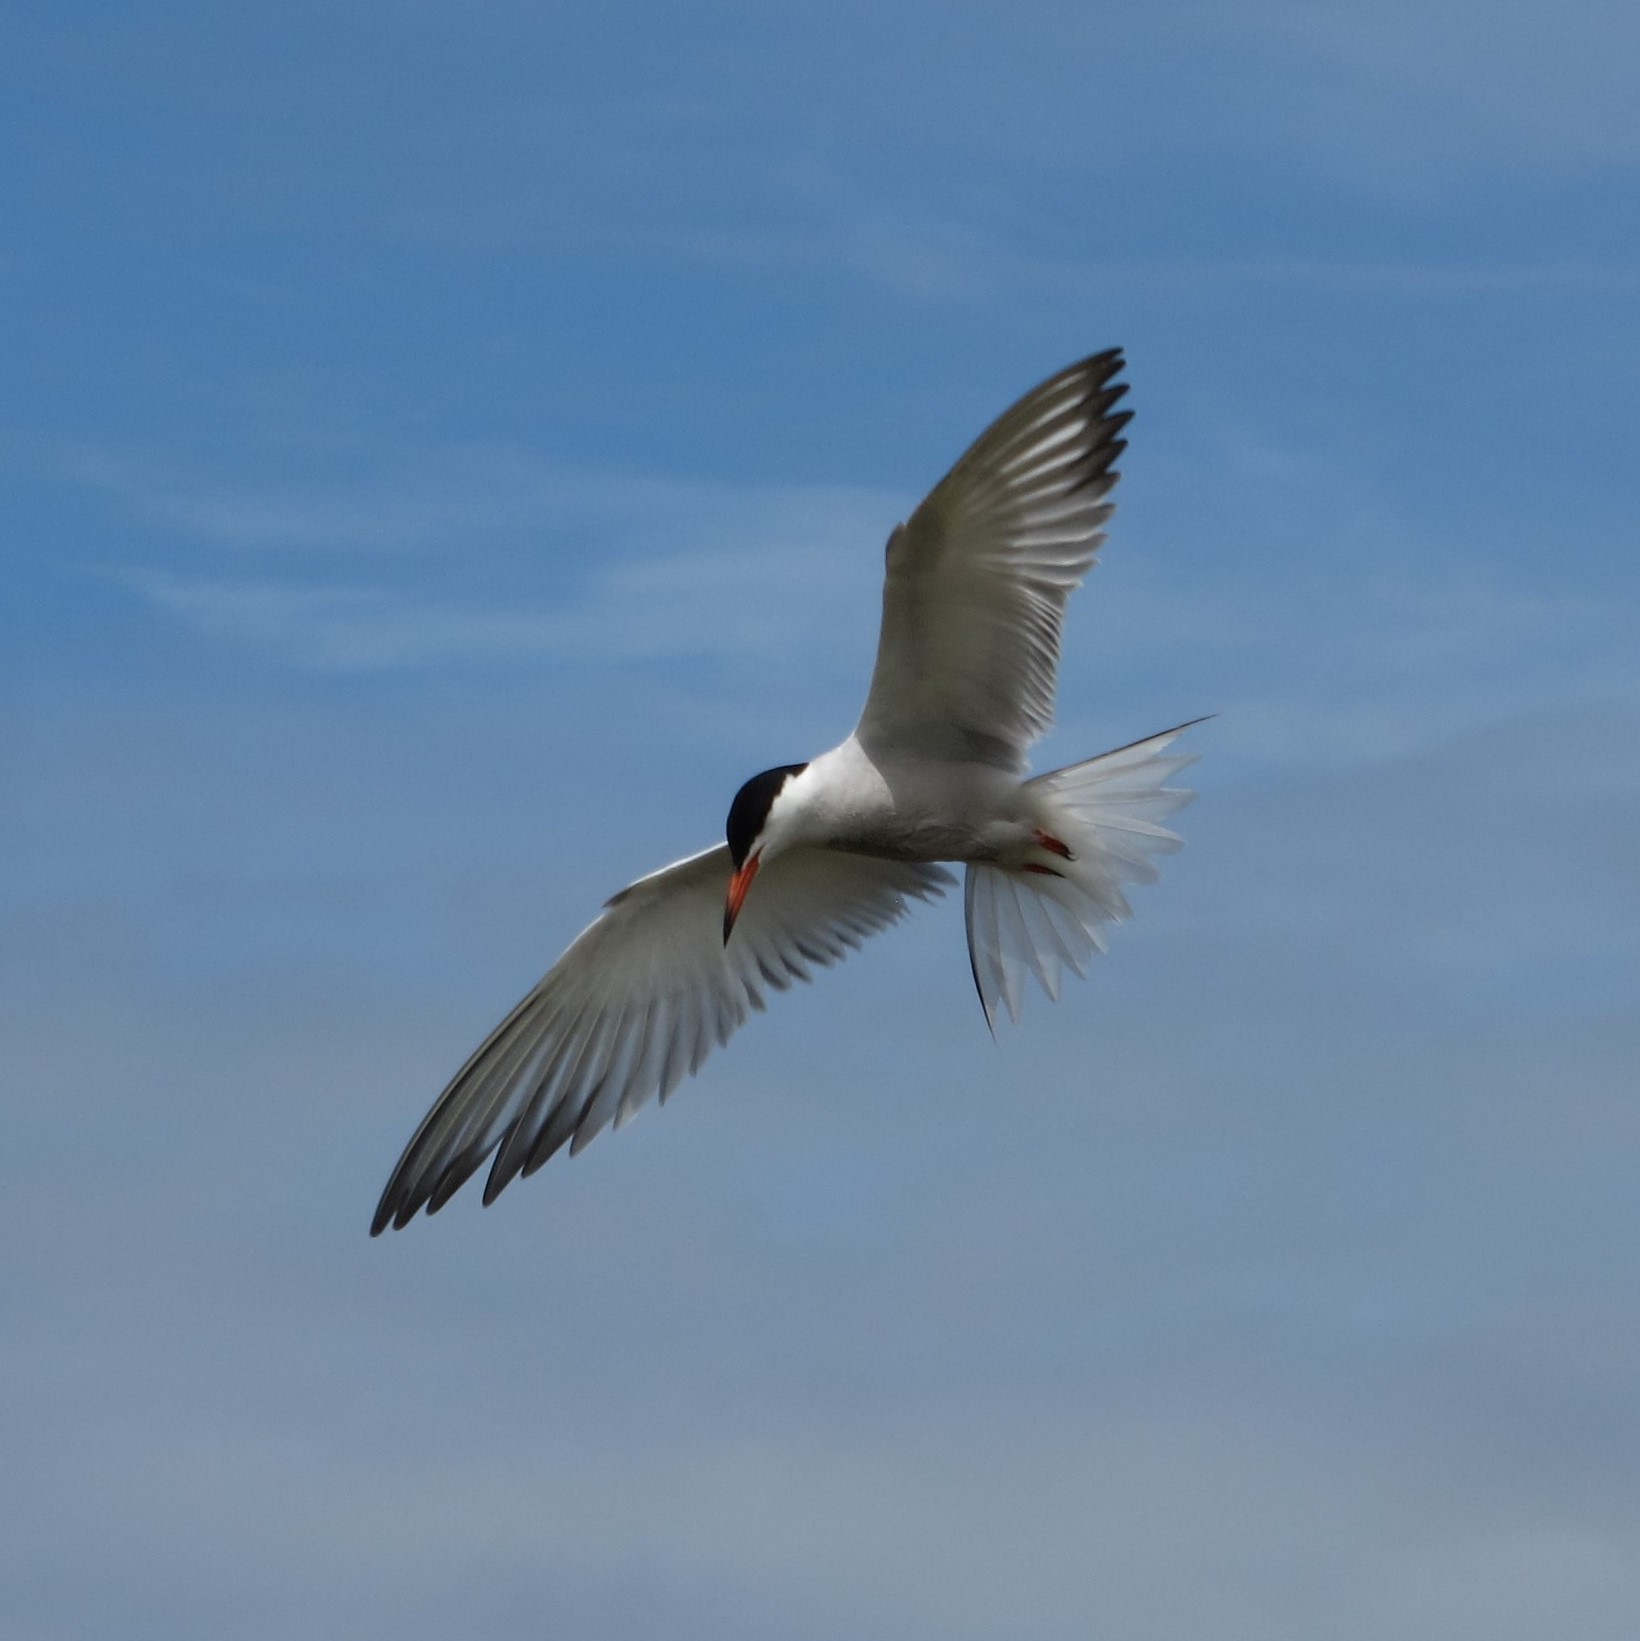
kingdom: Animalia
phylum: Chordata
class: Aves
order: Charadriiformes
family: Laridae
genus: Sterna
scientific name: Sterna hirundo
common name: Common tern
